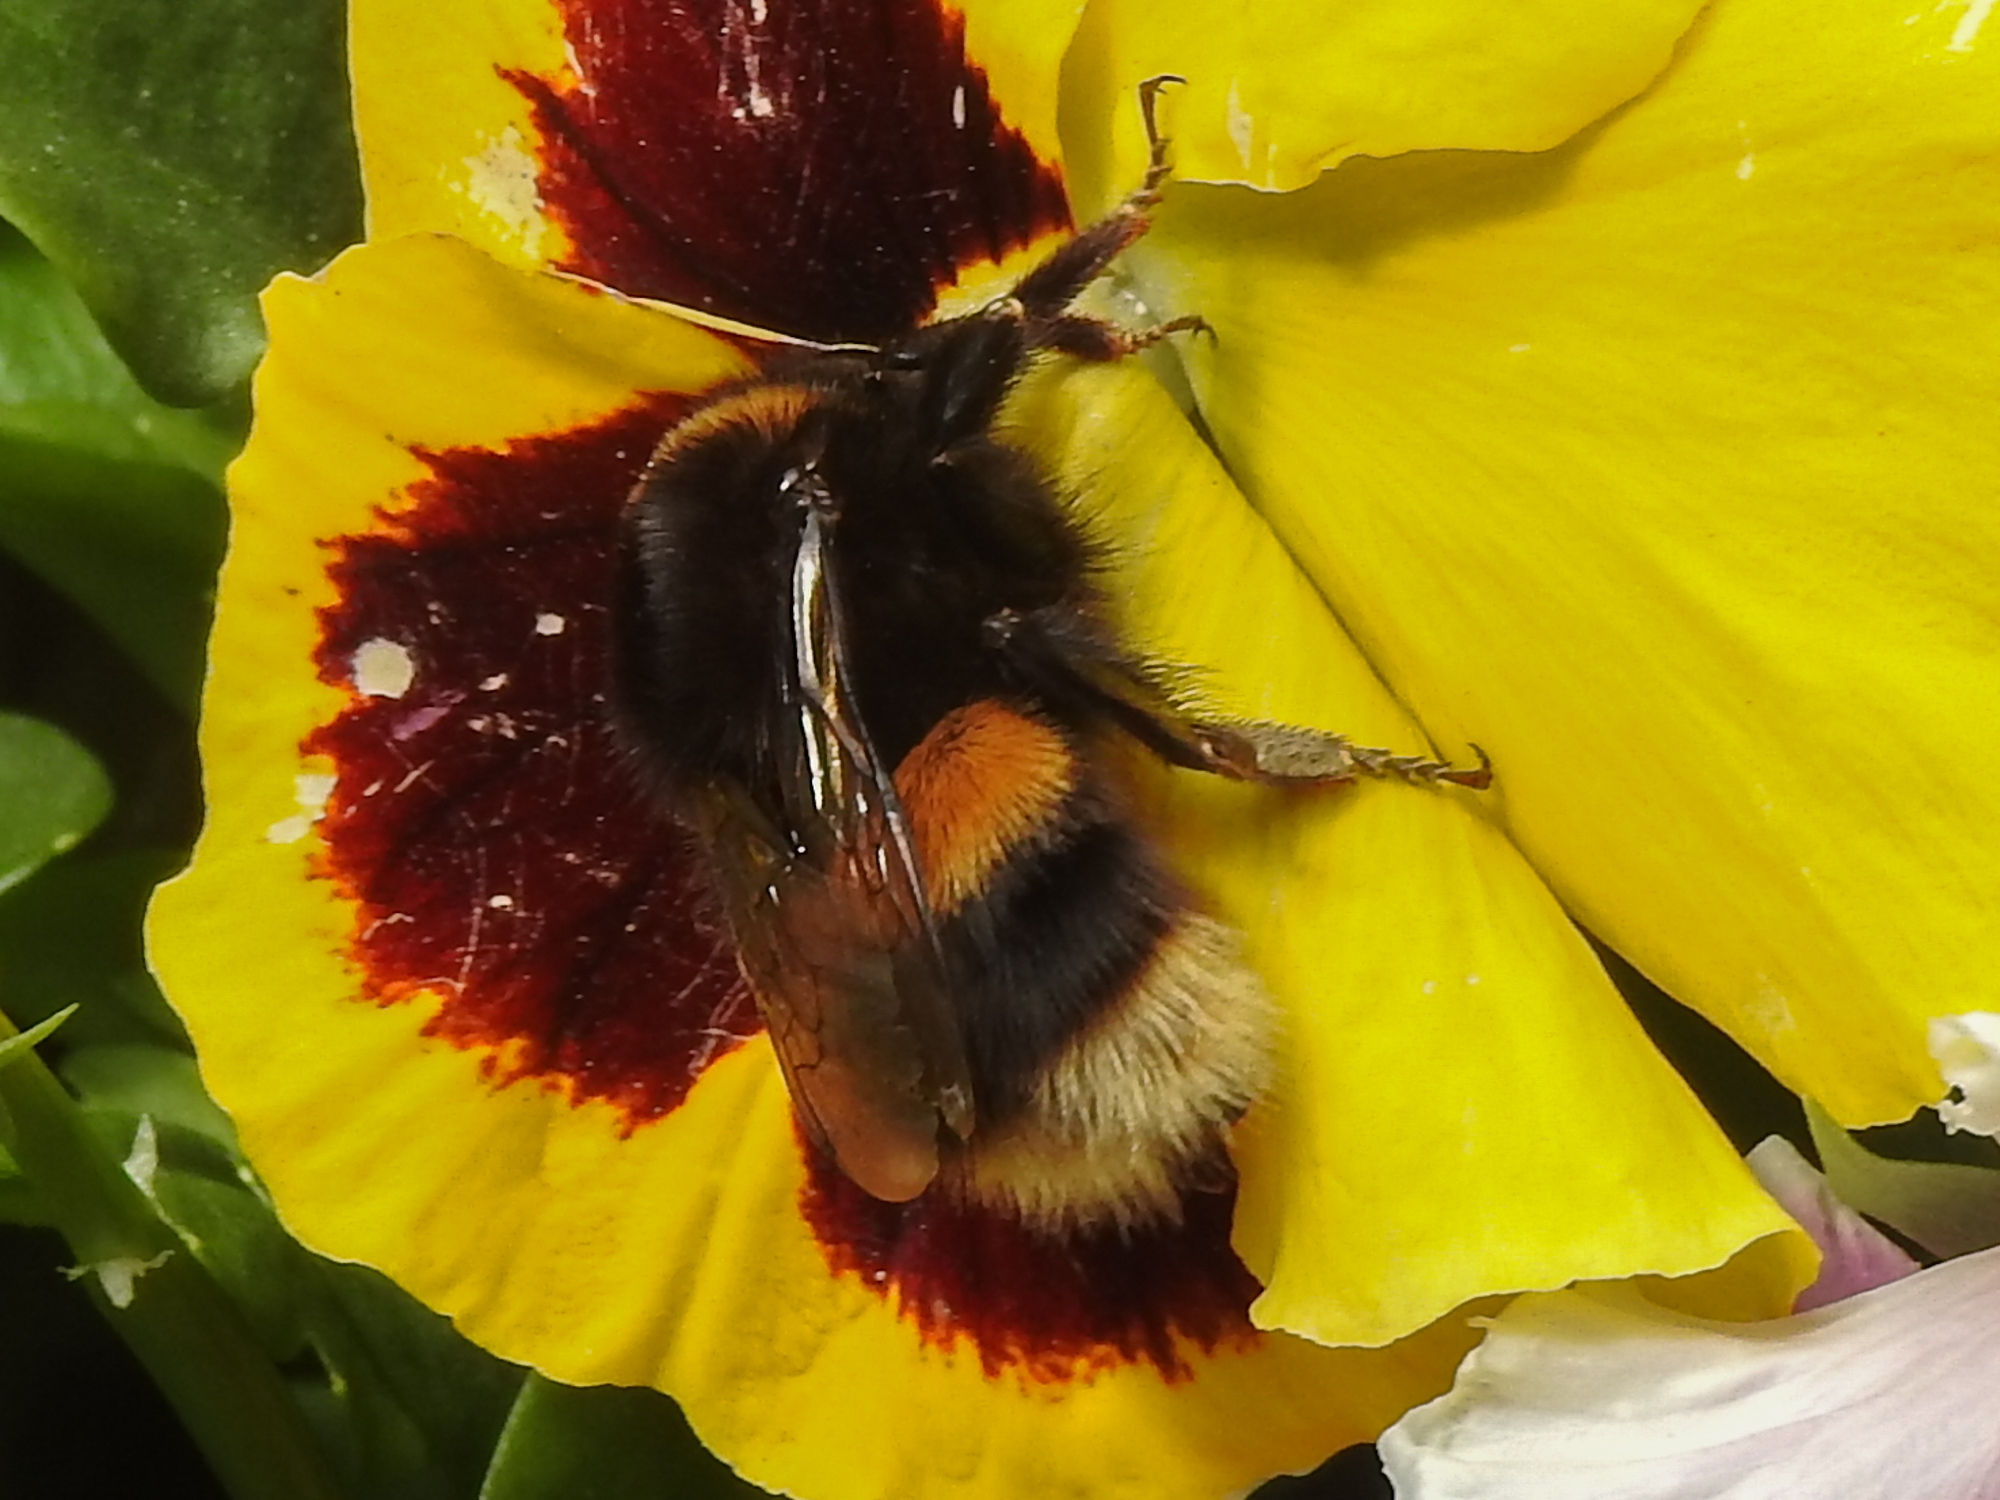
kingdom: Animalia
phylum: Arthropoda
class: Insecta
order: Hymenoptera
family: Apidae
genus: Bombus
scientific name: Bombus terrestris
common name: Buff-tailed bumblebee
